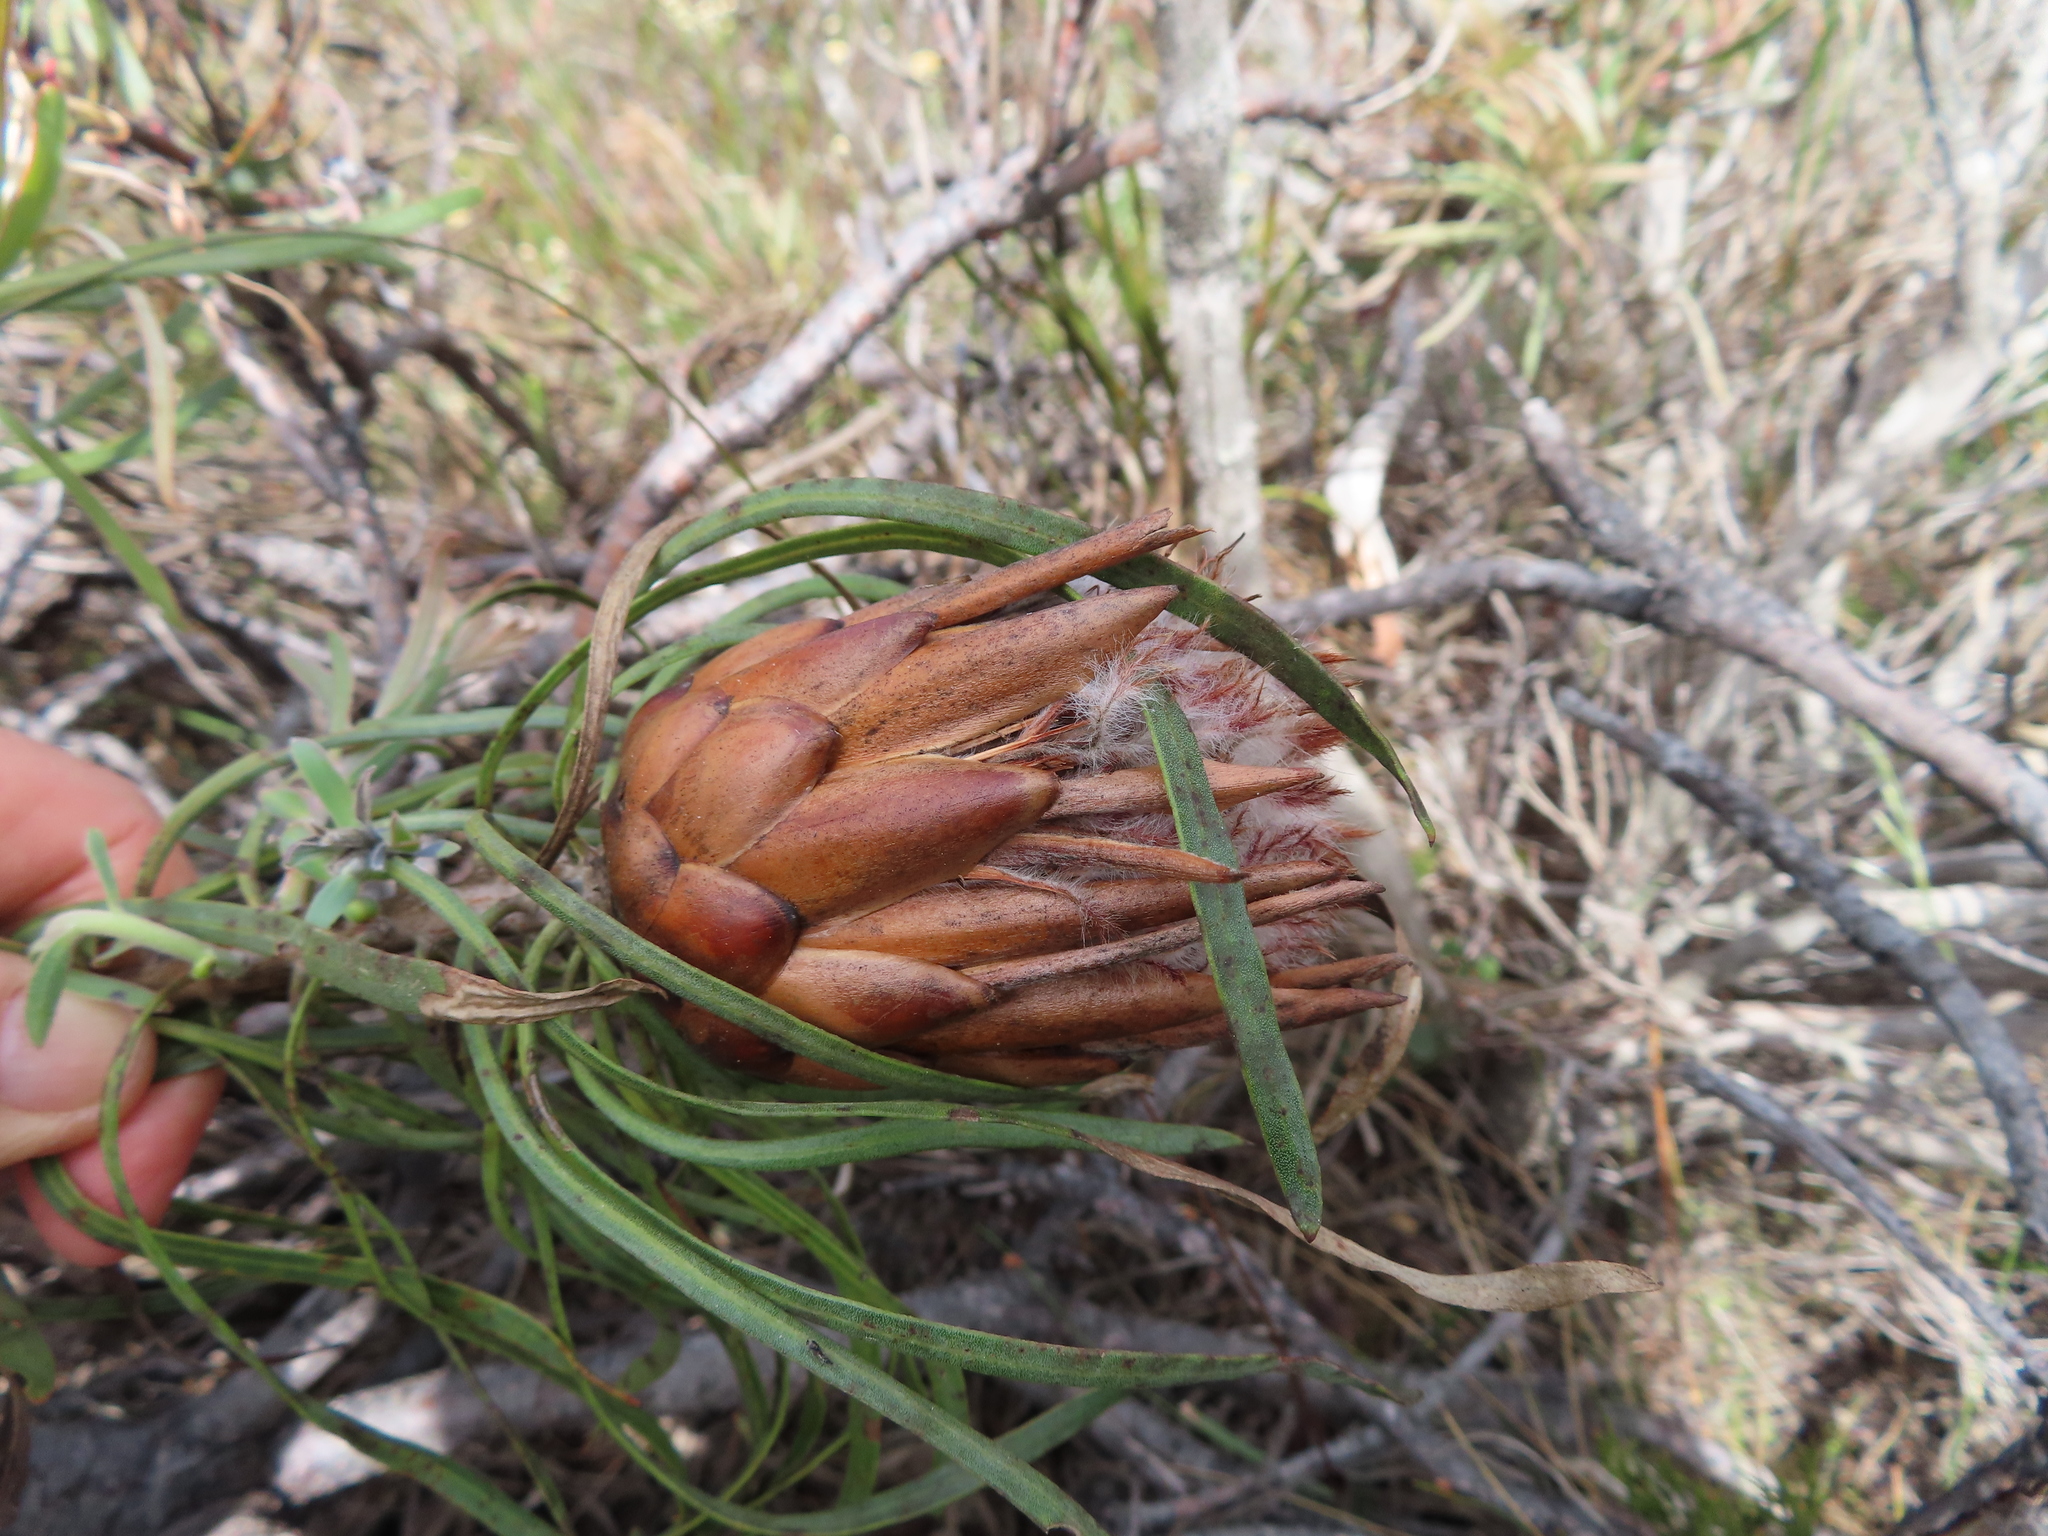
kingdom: Plantae
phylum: Tracheophyta
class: Magnoliopsida
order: Proteales
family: Proteaceae
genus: Protea
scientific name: Protea pudens
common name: Bashful sugarbush
